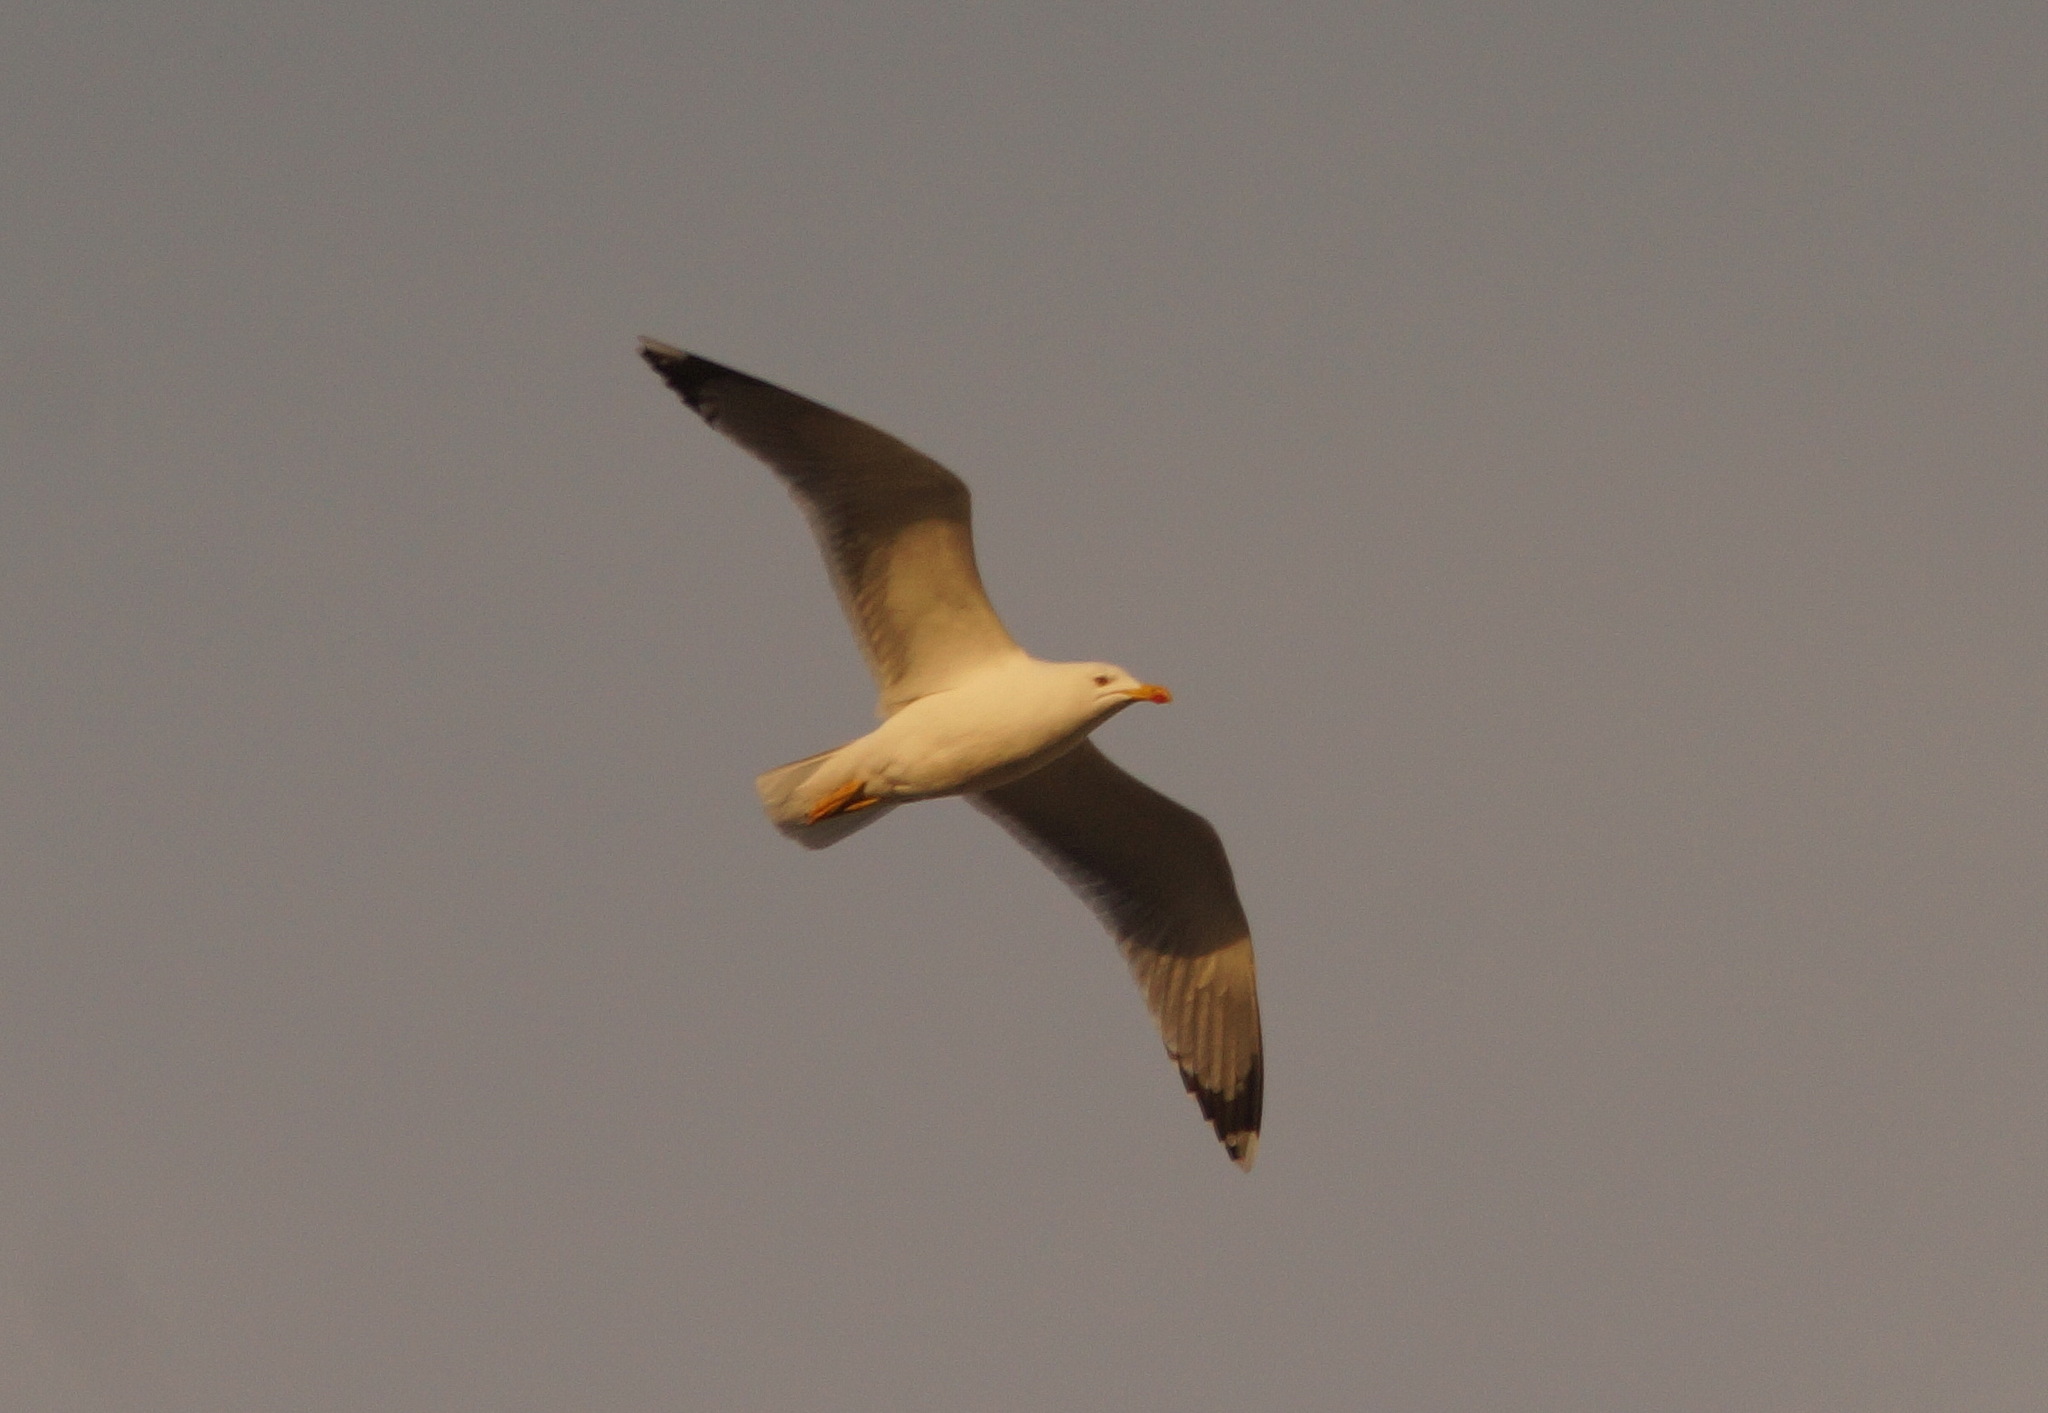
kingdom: Animalia
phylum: Chordata
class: Aves
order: Charadriiformes
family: Laridae
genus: Larus
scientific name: Larus michahellis
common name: Yellow-legged gull
